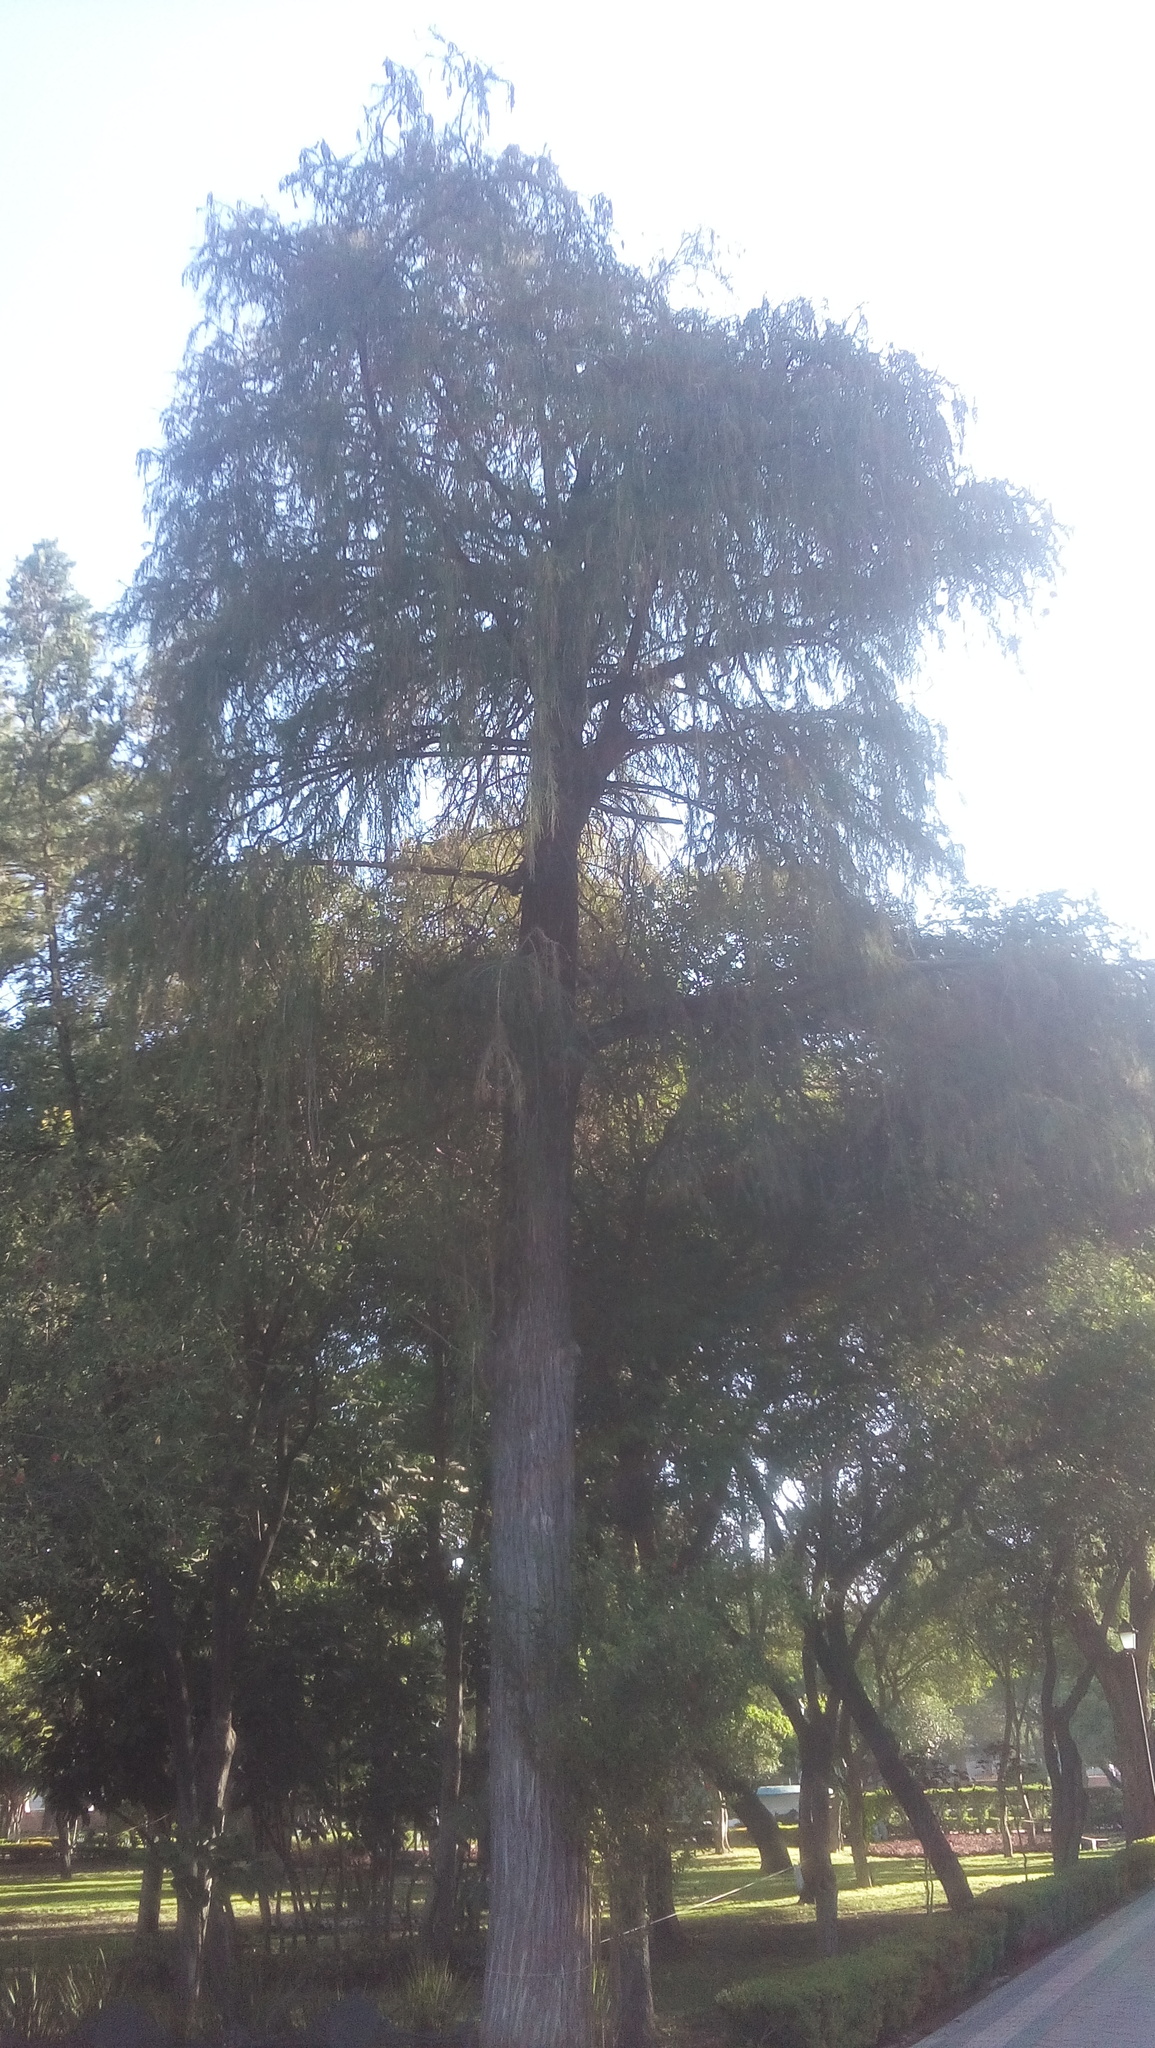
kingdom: Plantae
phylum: Tracheophyta
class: Pinopsida
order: Pinales
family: Cupressaceae
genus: Taxodium
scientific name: Taxodium mucronatum
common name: Montezume bald cypress
